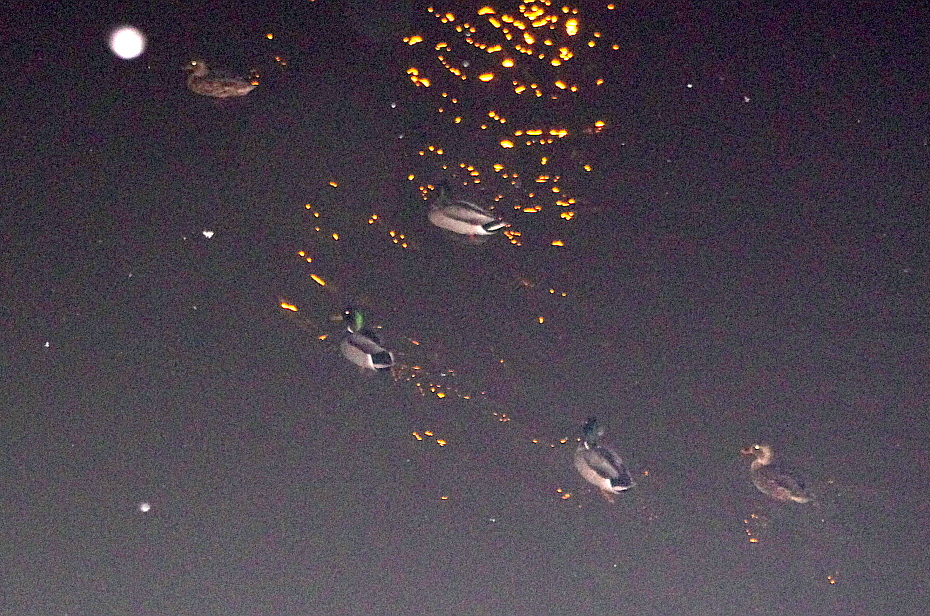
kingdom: Animalia
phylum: Chordata
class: Aves
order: Anseriformes
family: Anatidae
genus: Anas
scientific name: Anas platyrhynchos
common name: Mallard
